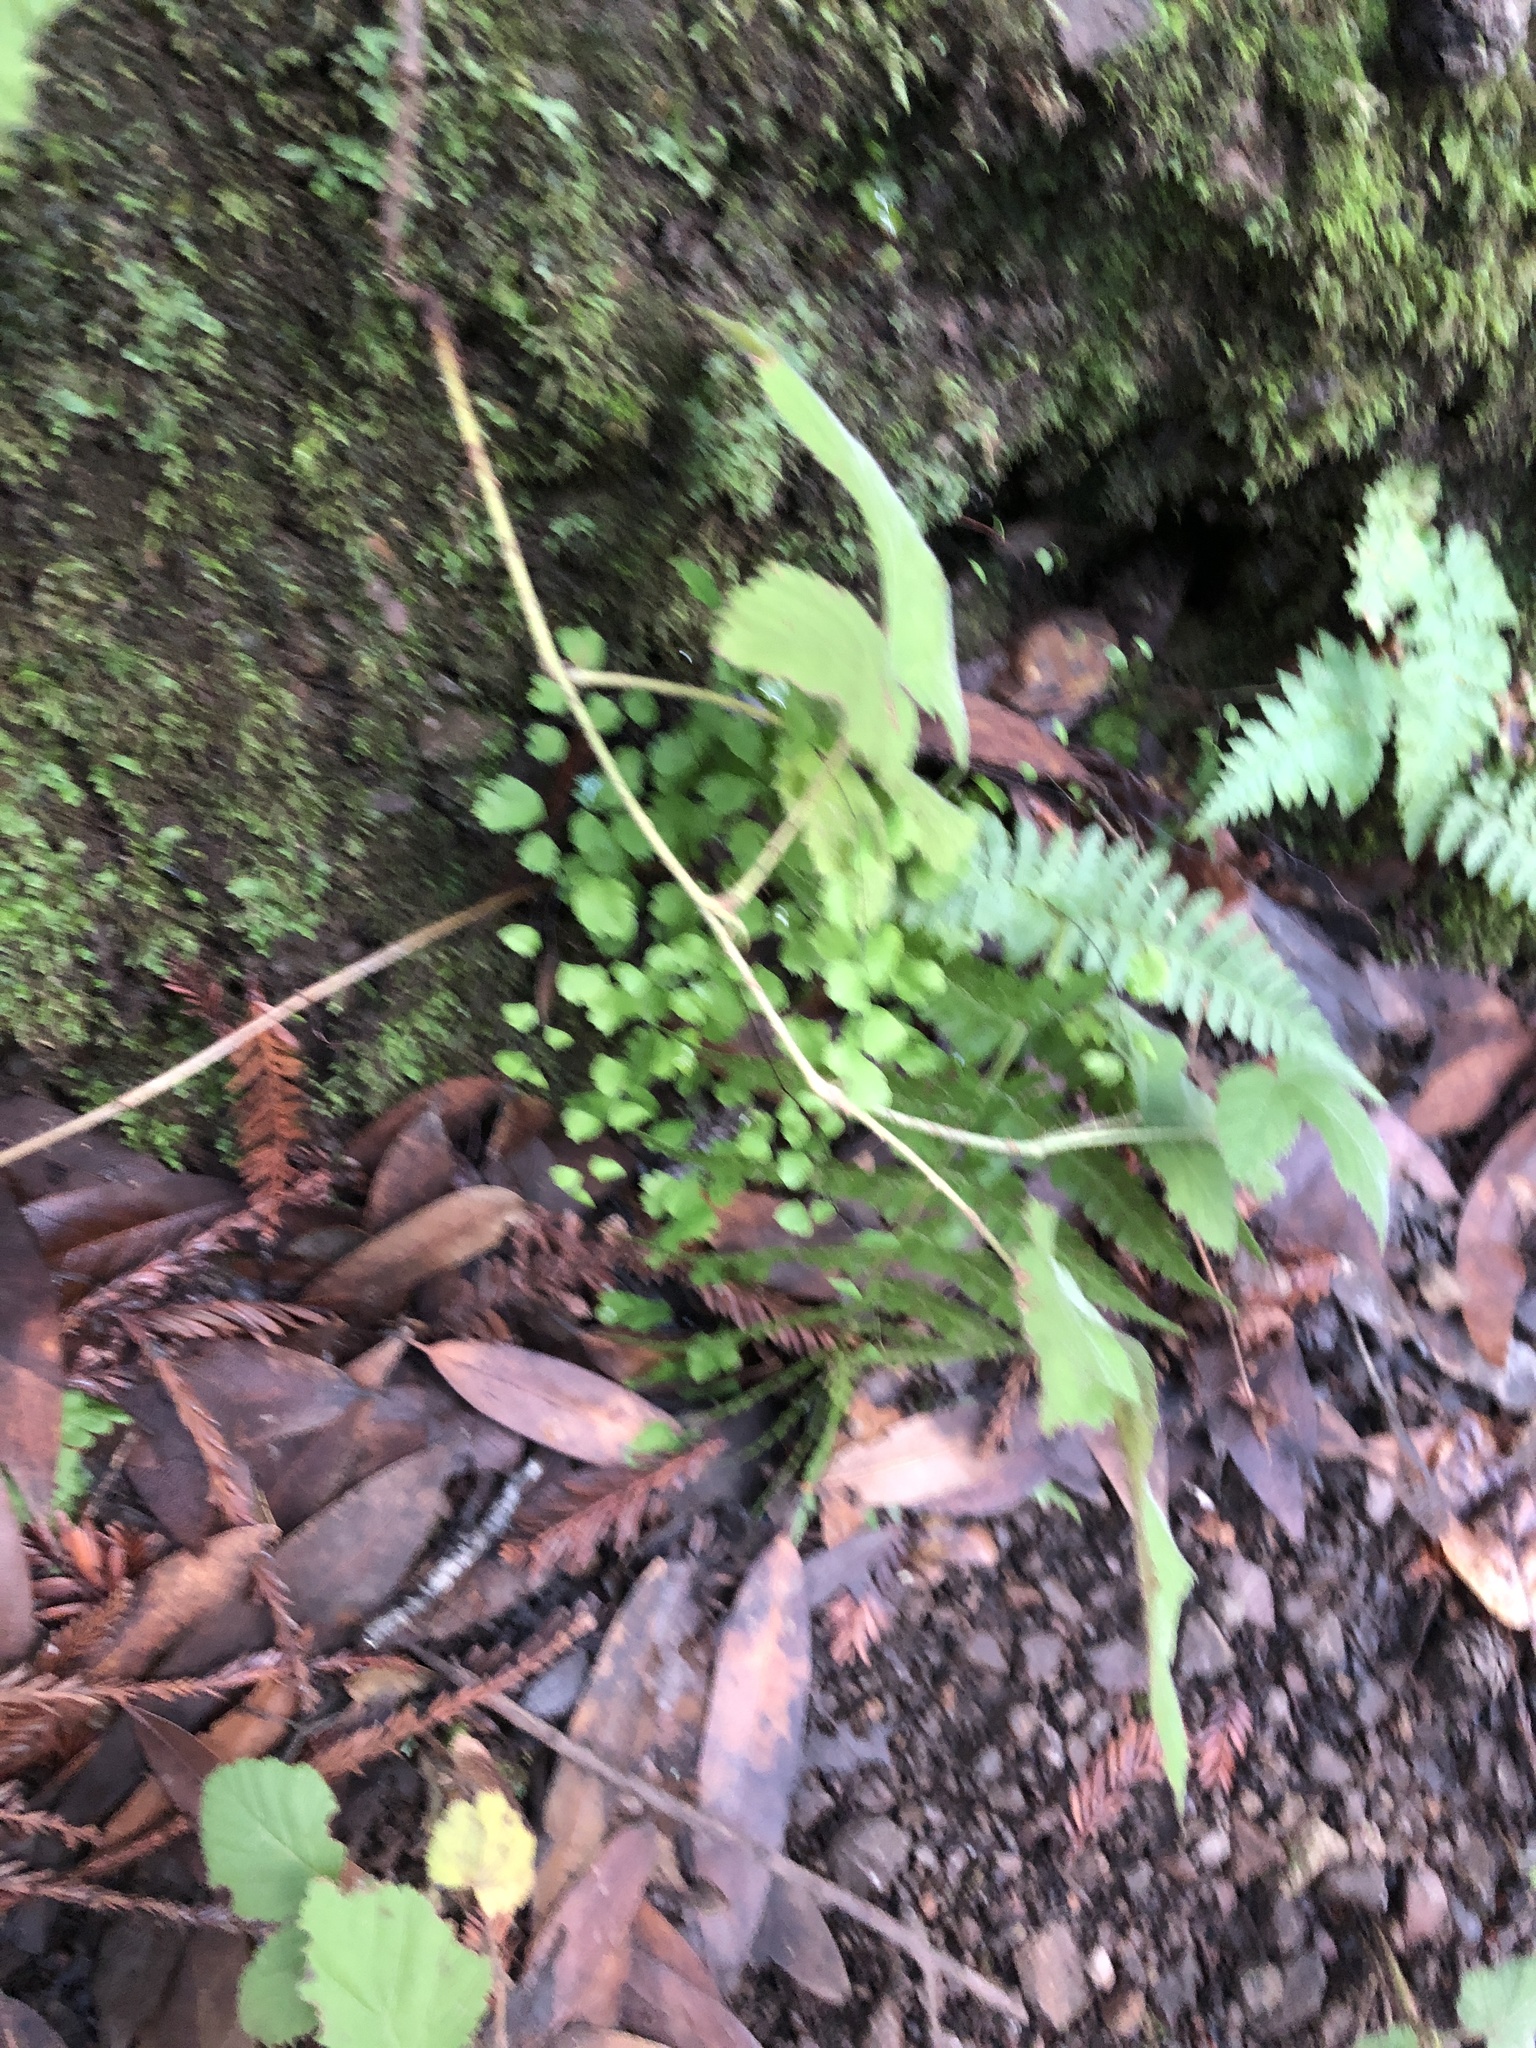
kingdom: Plantae
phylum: Tracheophyta
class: Polypodiopsida
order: Polypodiales
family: Pteridaceae
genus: Adiantum
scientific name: Adiantum jordanii
